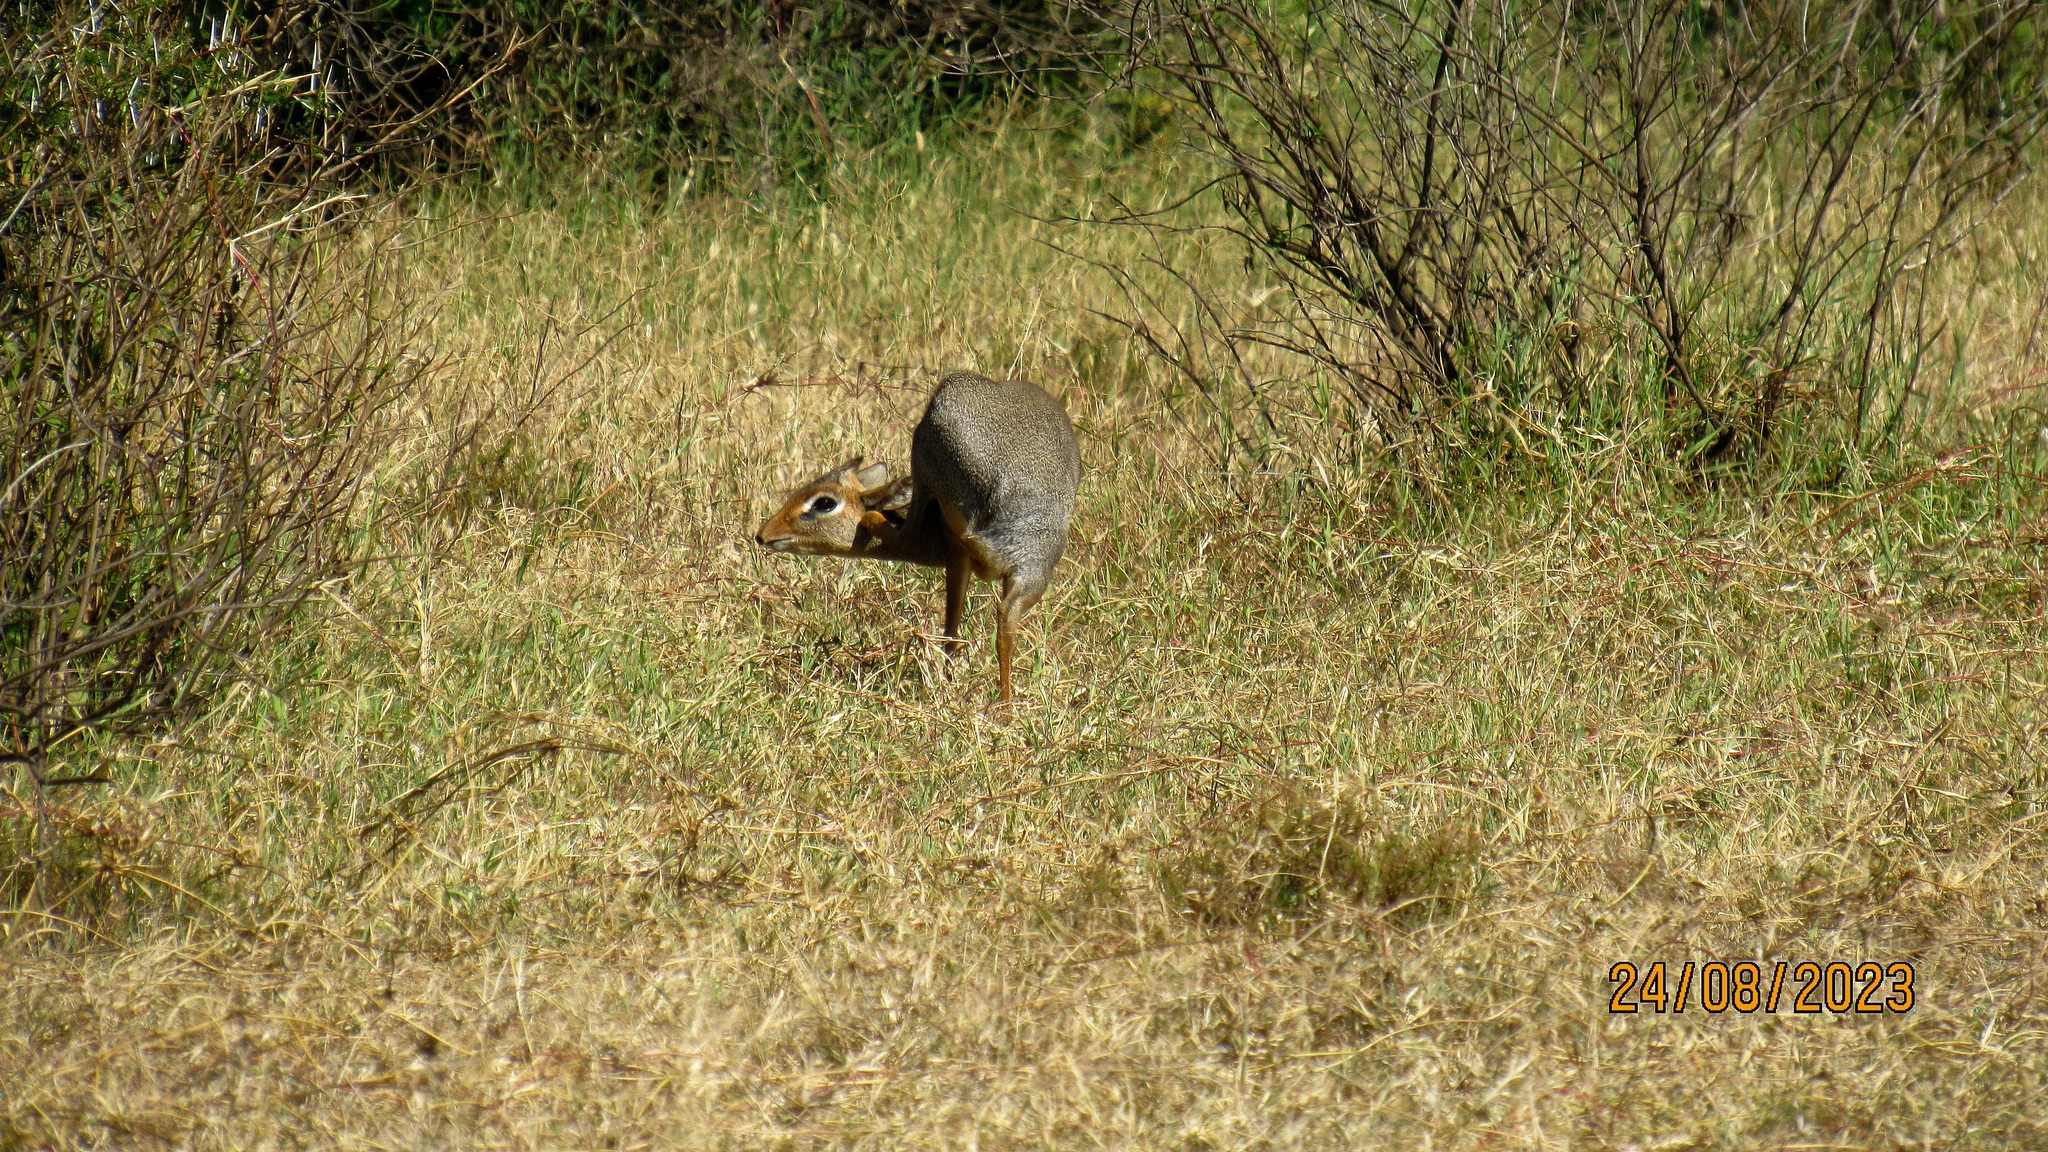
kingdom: Animalia
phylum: Chordata
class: Mammalia
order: Artiodactyla
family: Bovidae
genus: Madoqua
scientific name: Madoqua kirkii
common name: Kirk's dik-dik
